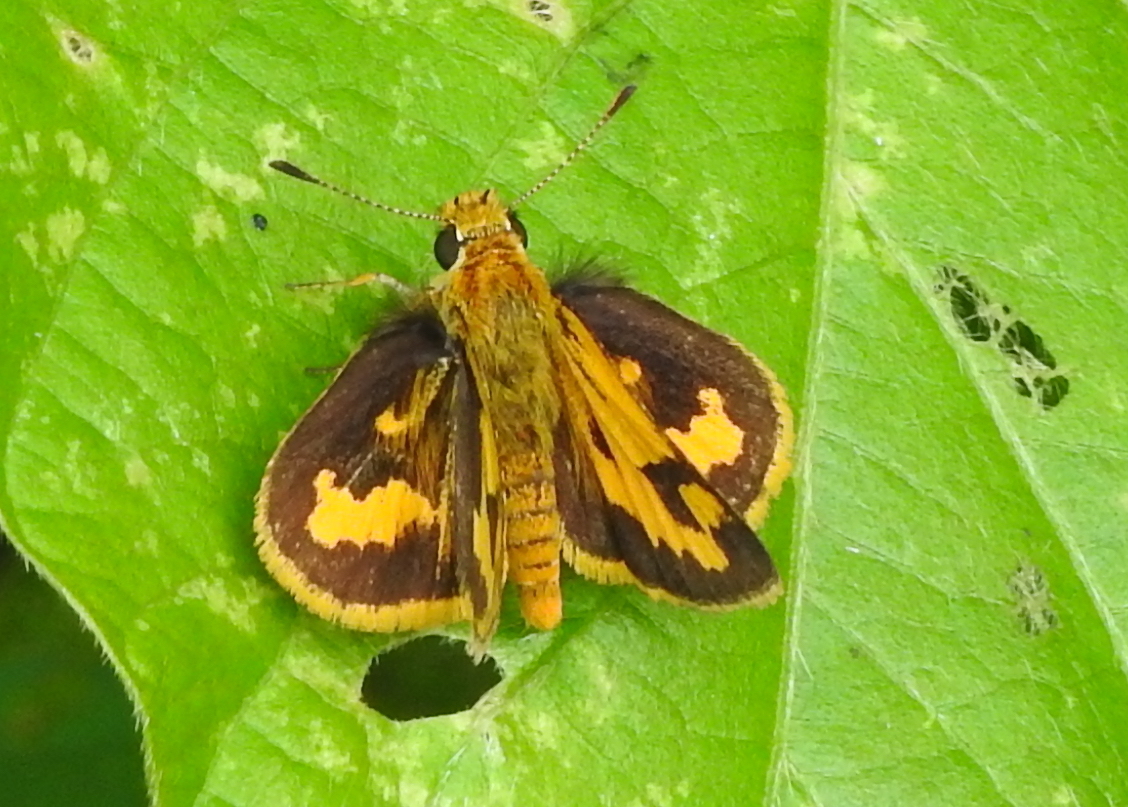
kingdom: Animalia
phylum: Arthropoda
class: Insecta
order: Lepidoptera
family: Hesperiidae
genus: Taractrocera
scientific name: Taractrocera archias
